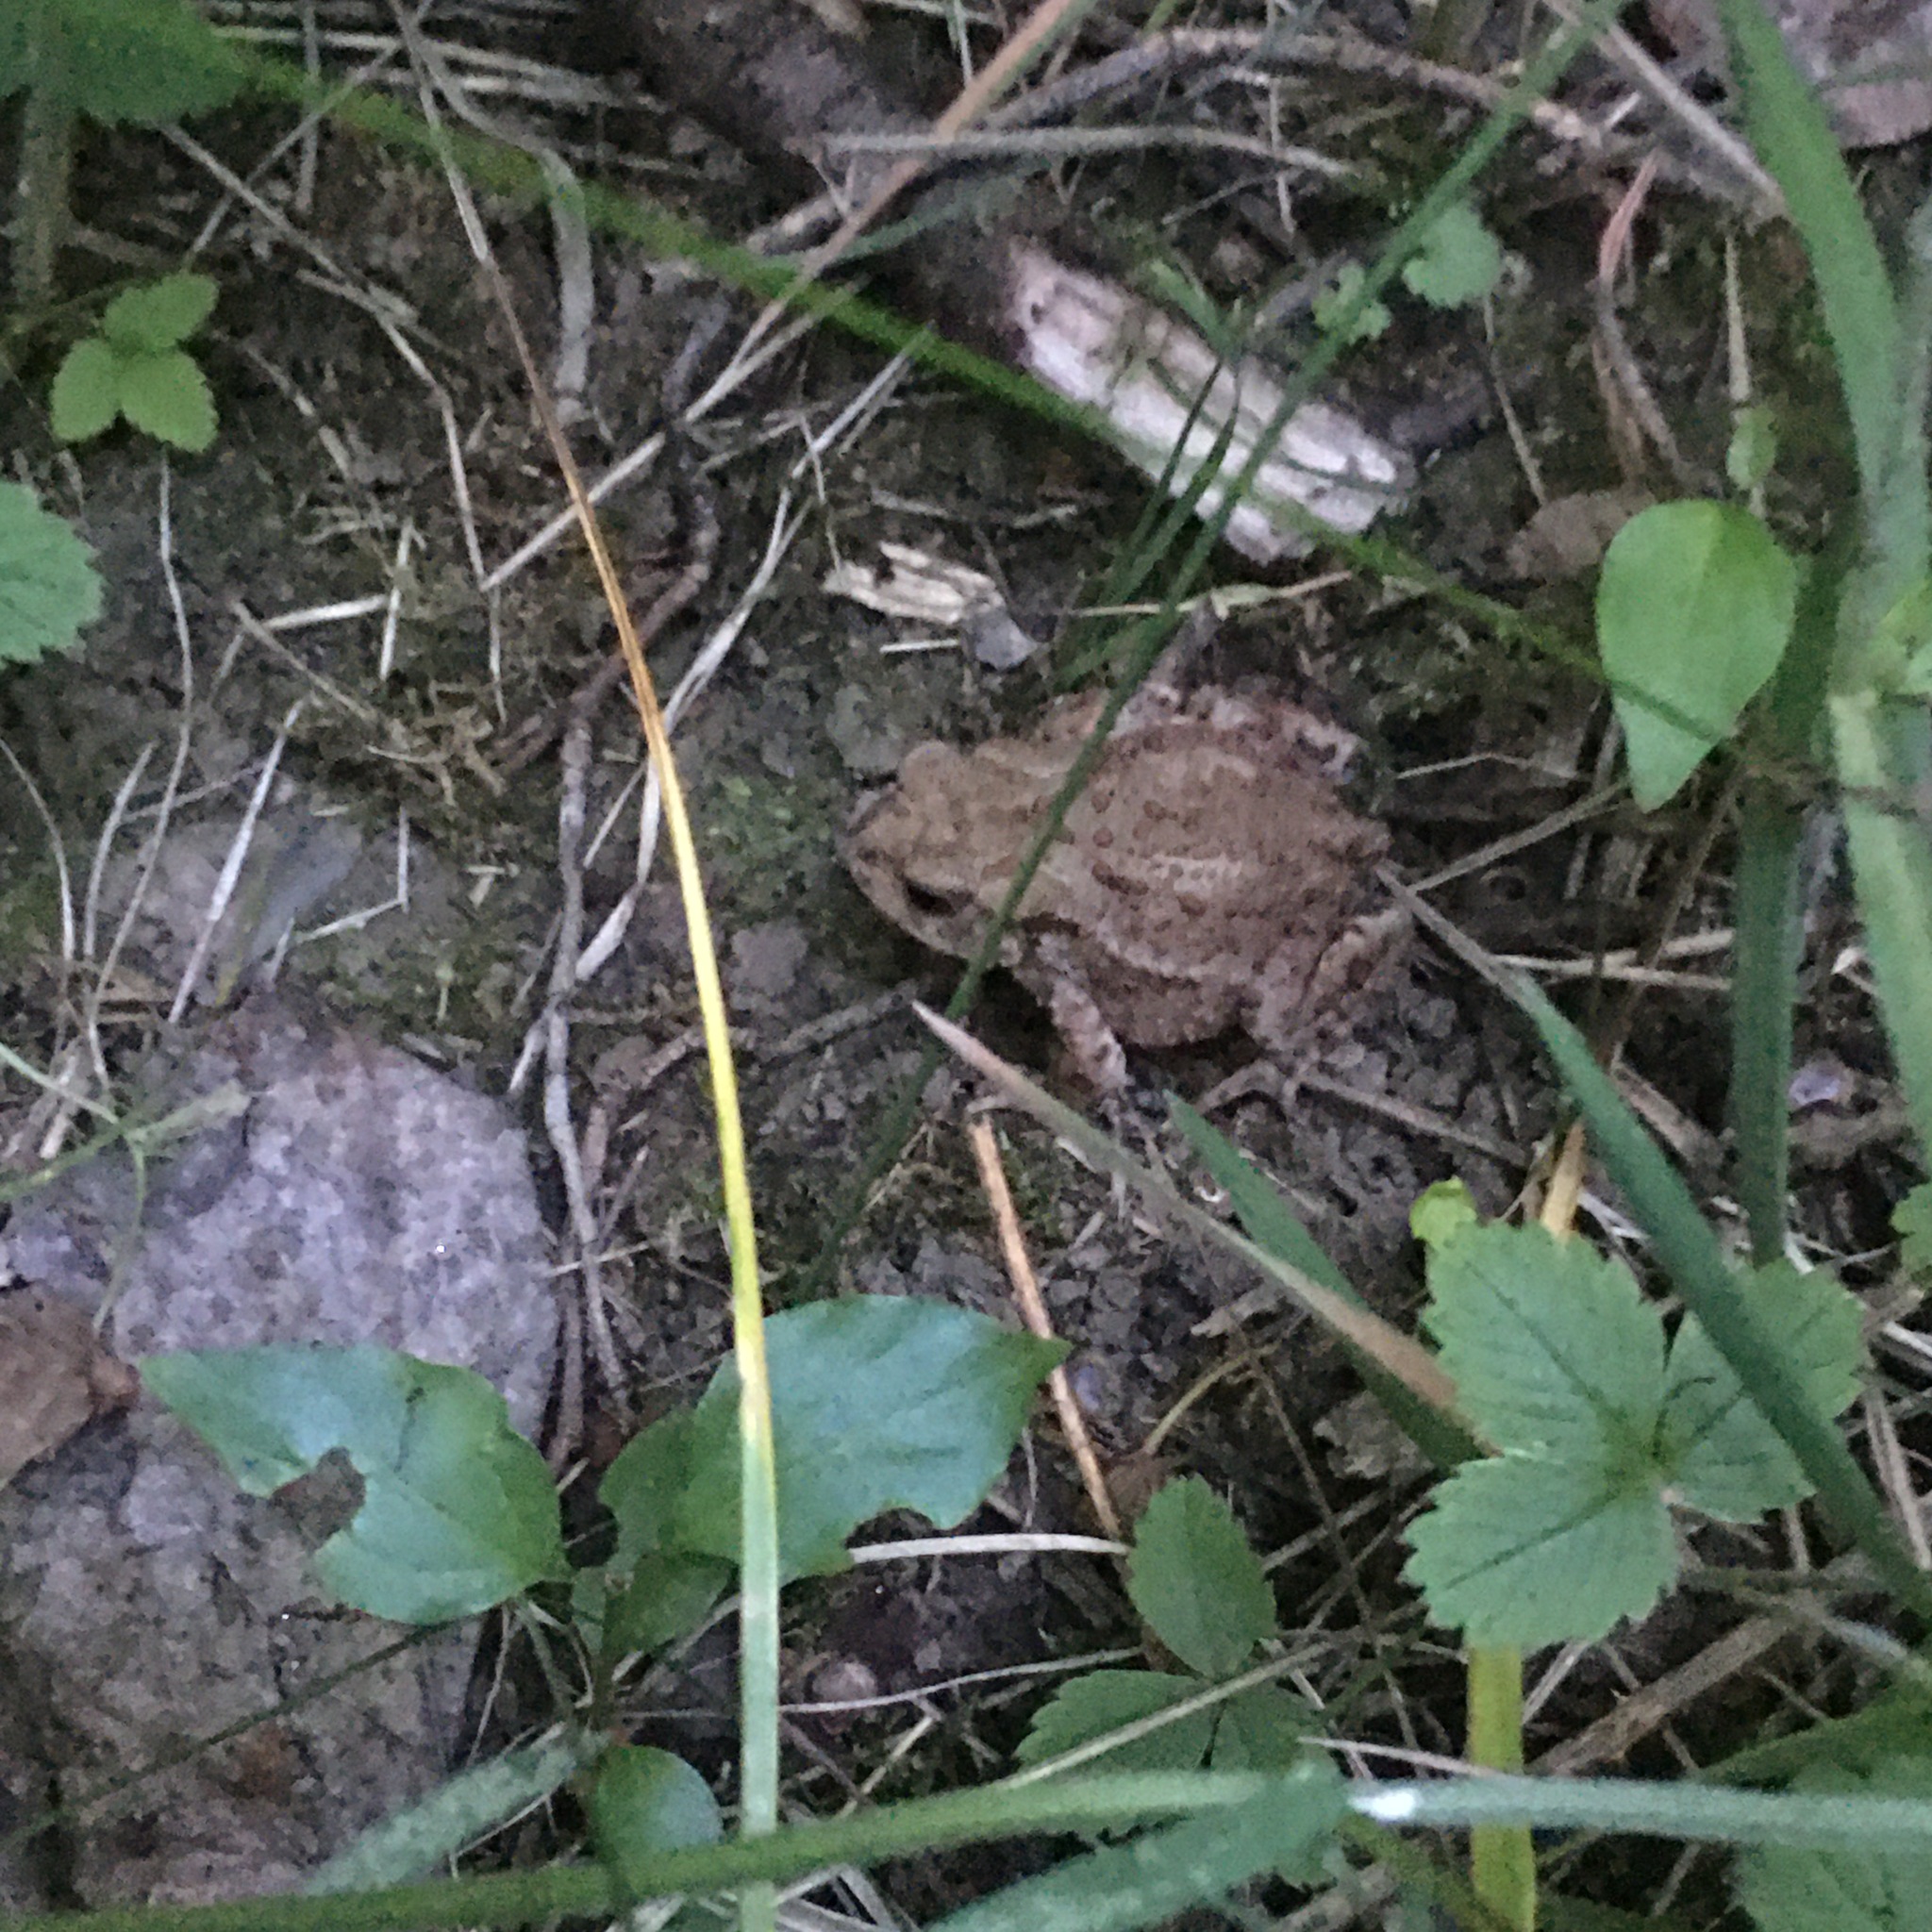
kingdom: Animalia
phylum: Chordata
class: Amphibia
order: Anura
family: Bufonidae
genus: Bufo
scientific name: Bufo bufo
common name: Common toad
